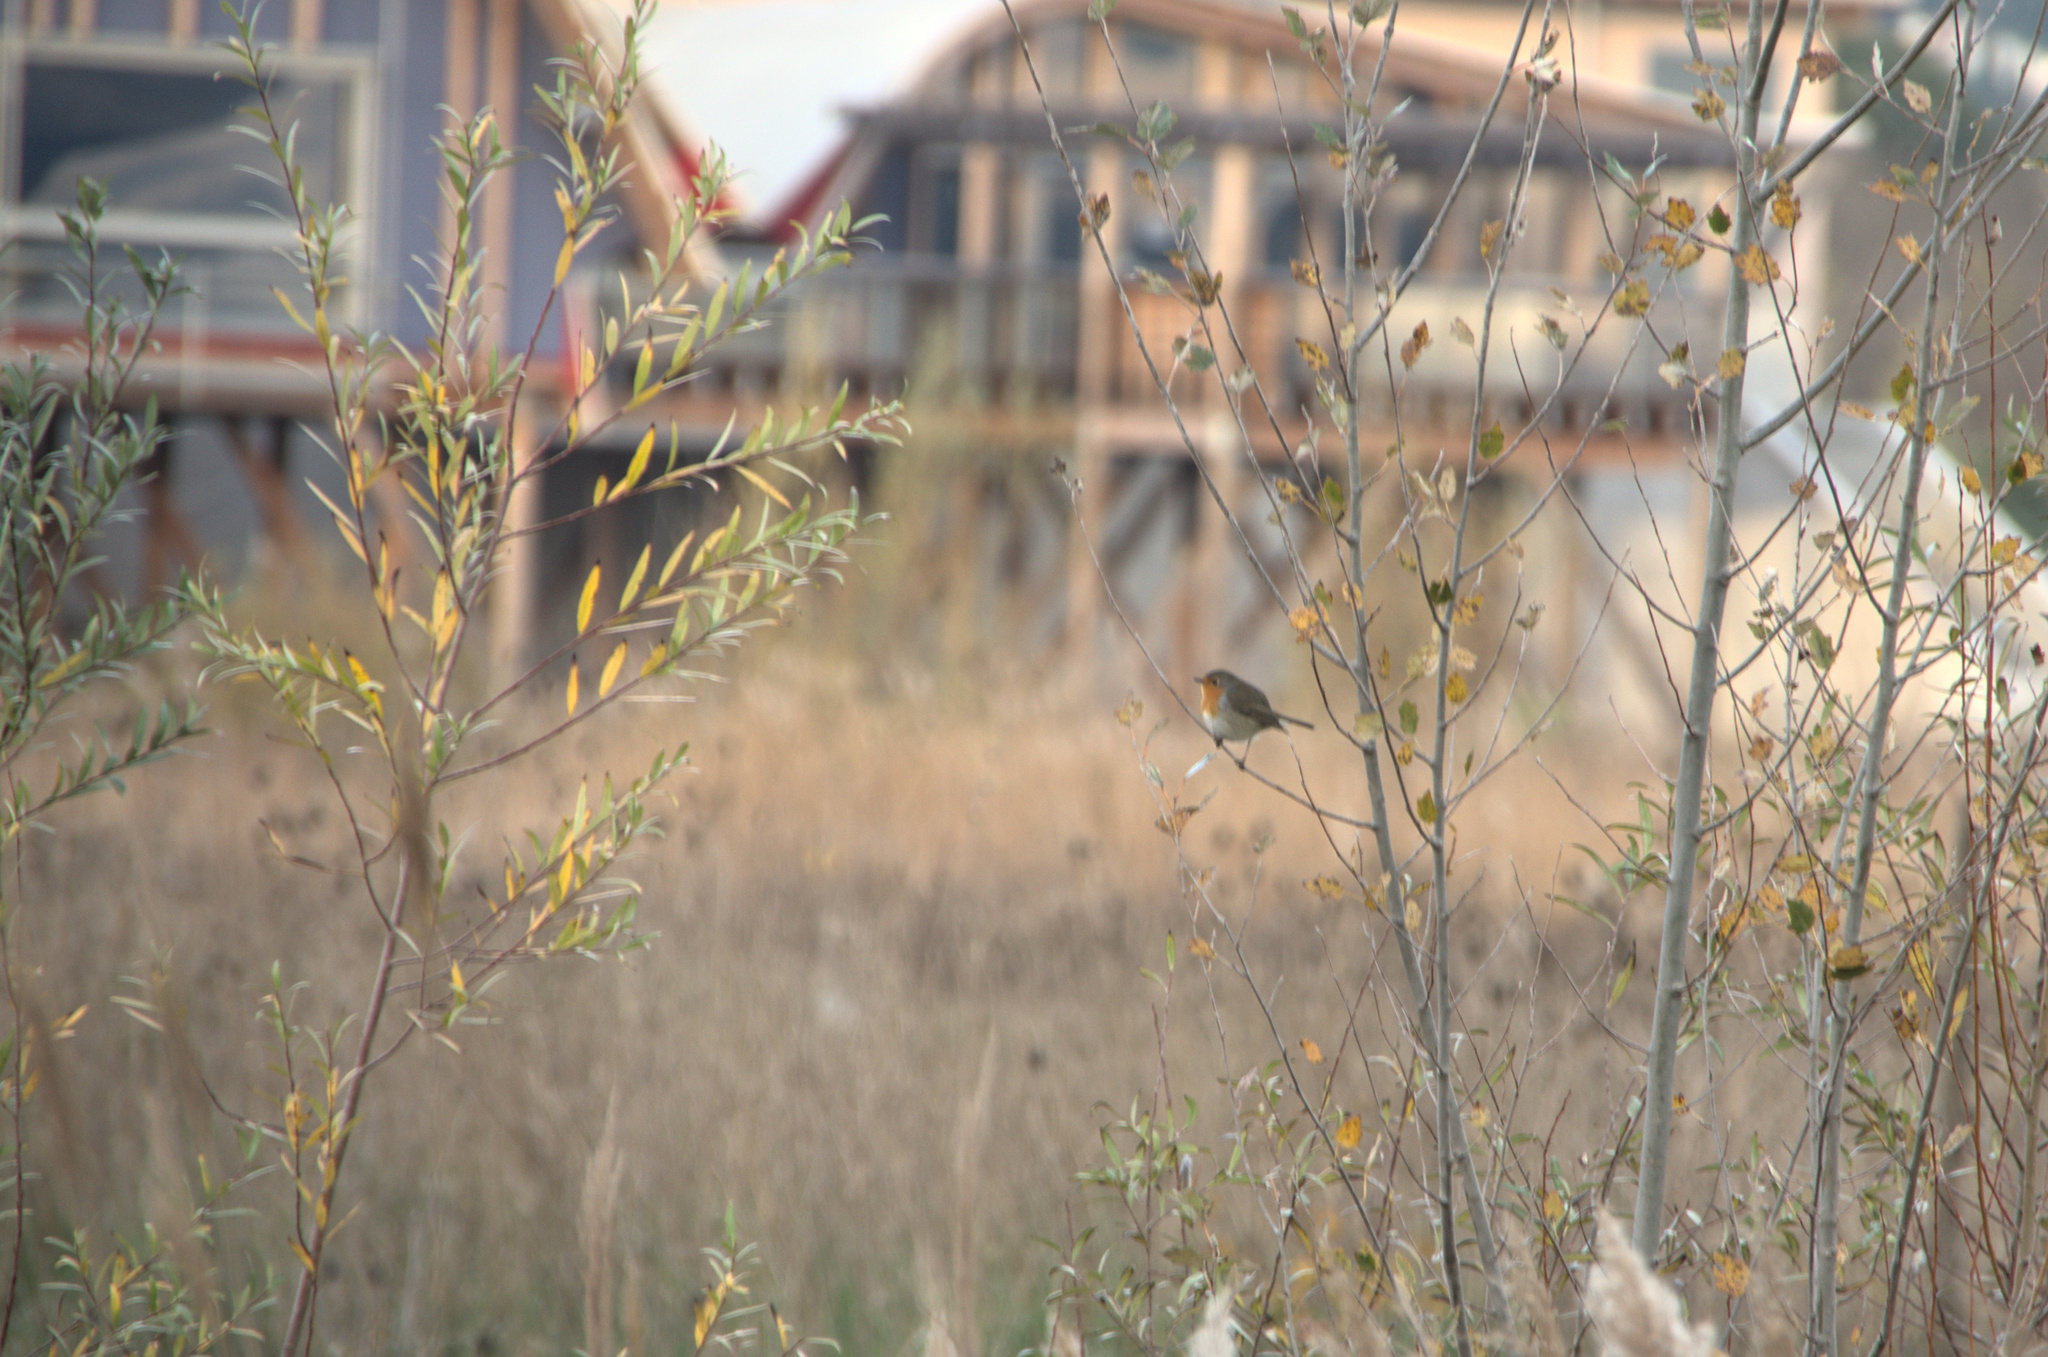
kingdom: Animalia
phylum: Chordata
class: Aves
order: Passeriformes
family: Muscicapidae
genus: Erithacus
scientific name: Erithacus rubecula
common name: European robin
